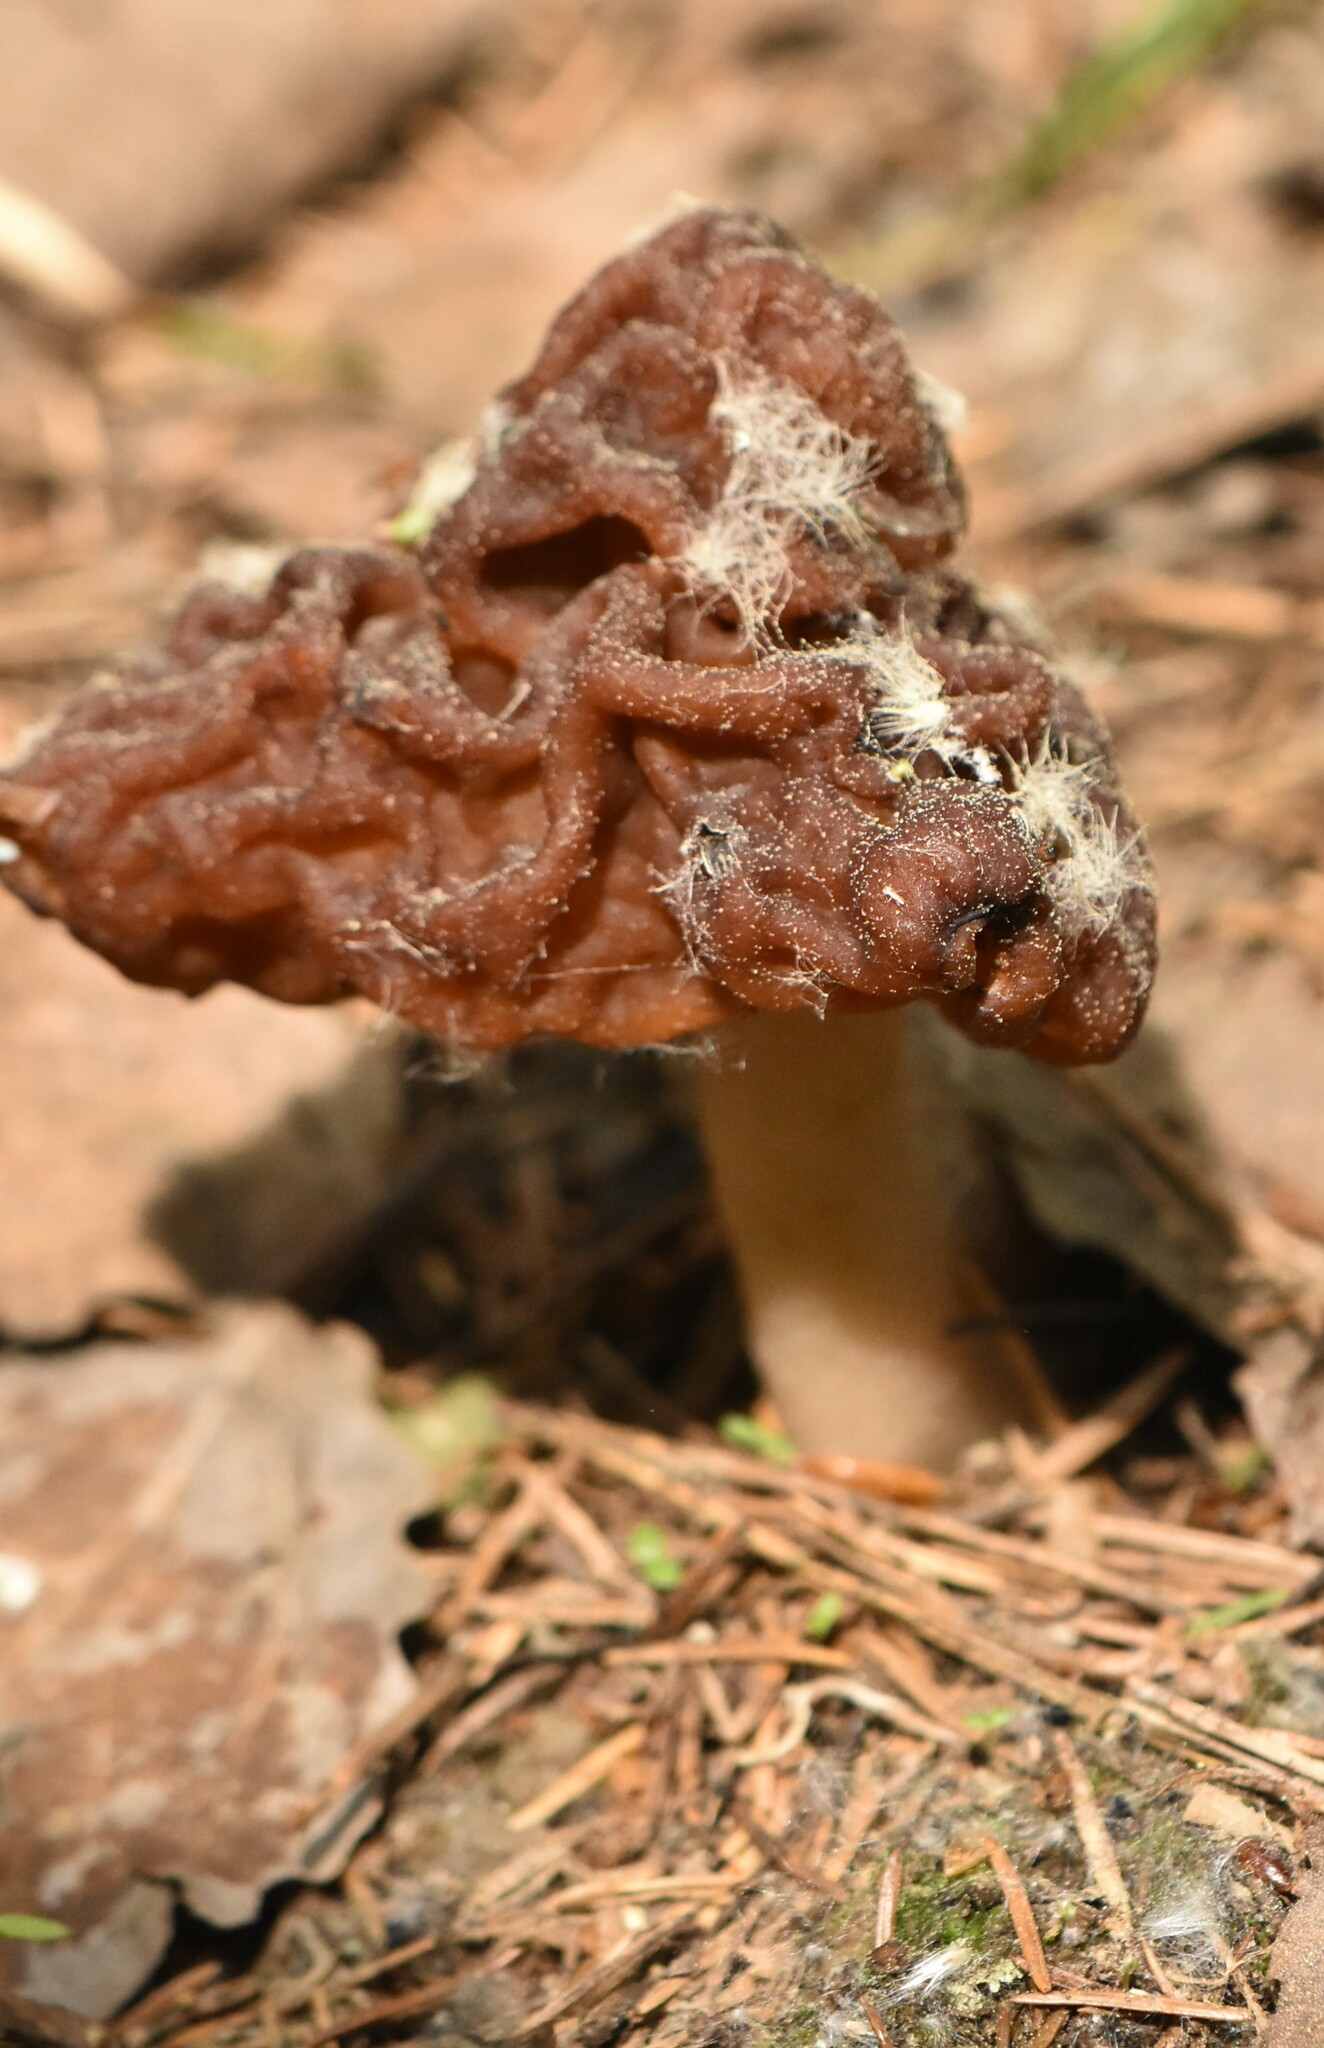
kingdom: Fungi
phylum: Ascomycota
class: Pezizomycetes
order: Pezizales
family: Discinaceae
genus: Gyromitra
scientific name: Gyromitra esculenta
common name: False morel
